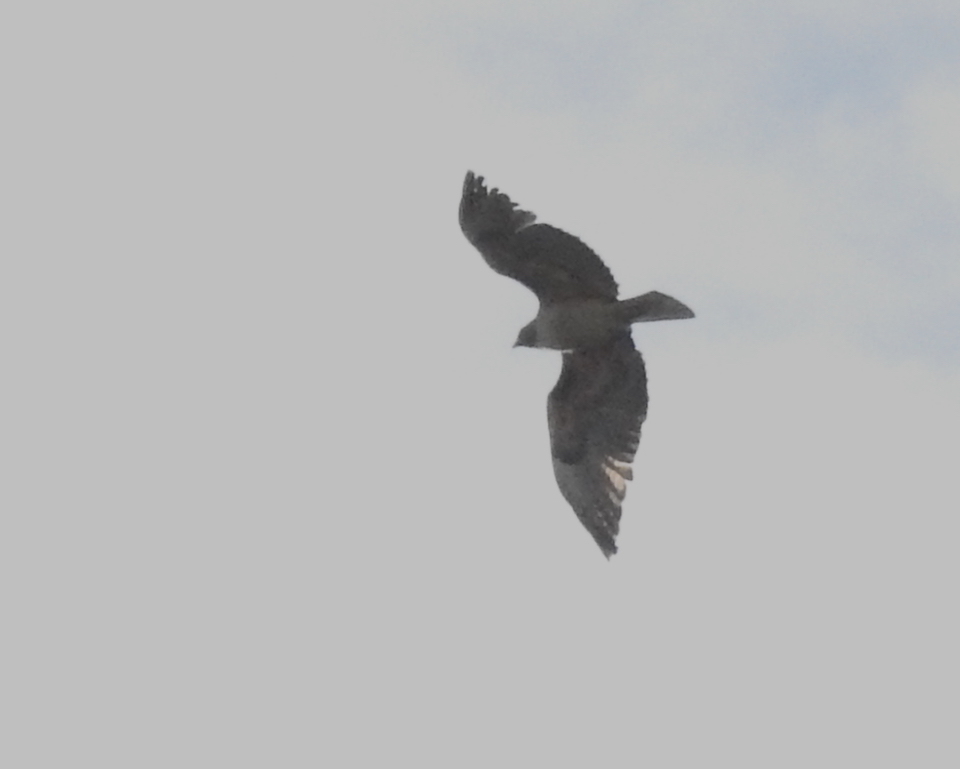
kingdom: Animalia
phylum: Chordata
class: Aves
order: Accipitriformes
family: Accipitridae
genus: Buteo
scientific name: Buteo jamaicensis
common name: Red-tailed hawk
